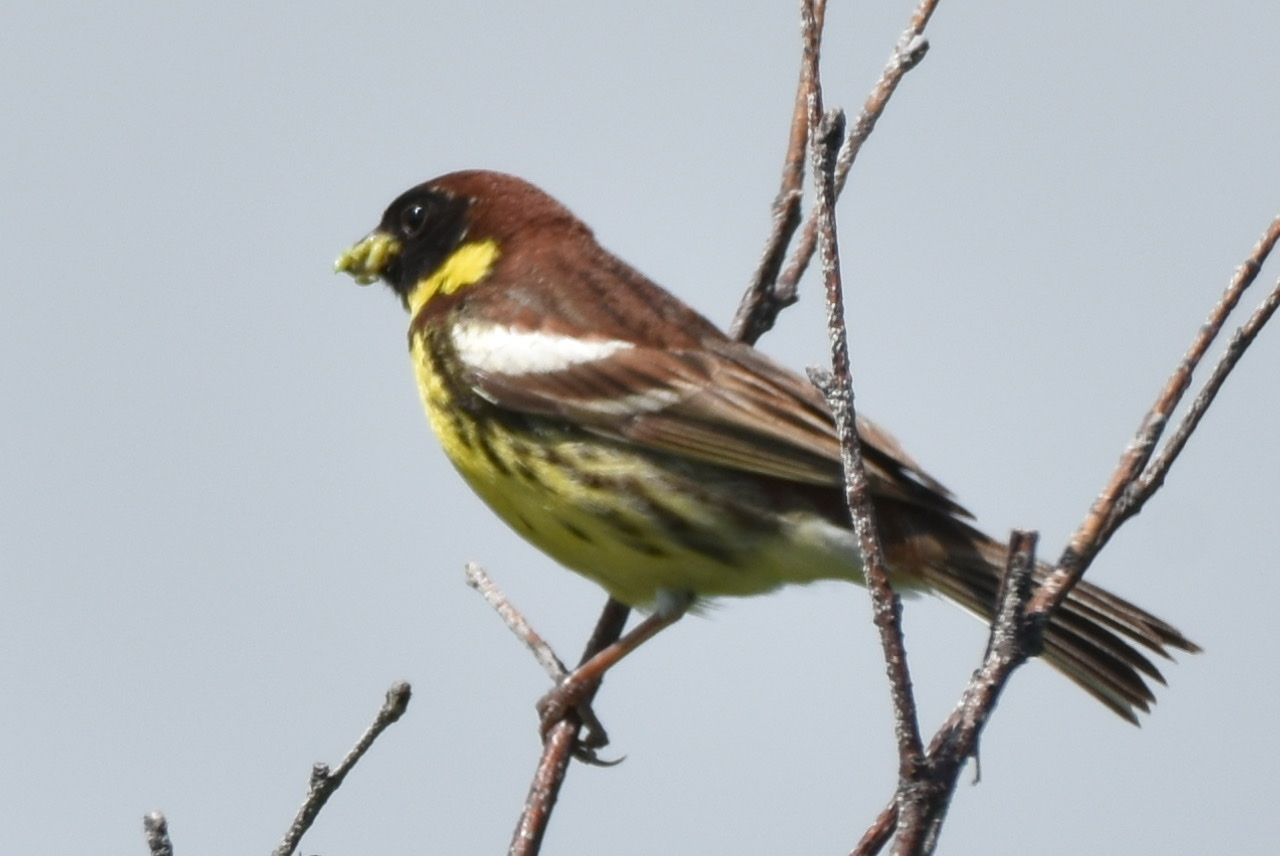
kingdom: Animalia
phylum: Chordata
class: Aves
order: Passeriformes
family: Emberizidae
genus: Emberiza
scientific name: Emberiza aureola
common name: Yellow-breasted bunting
